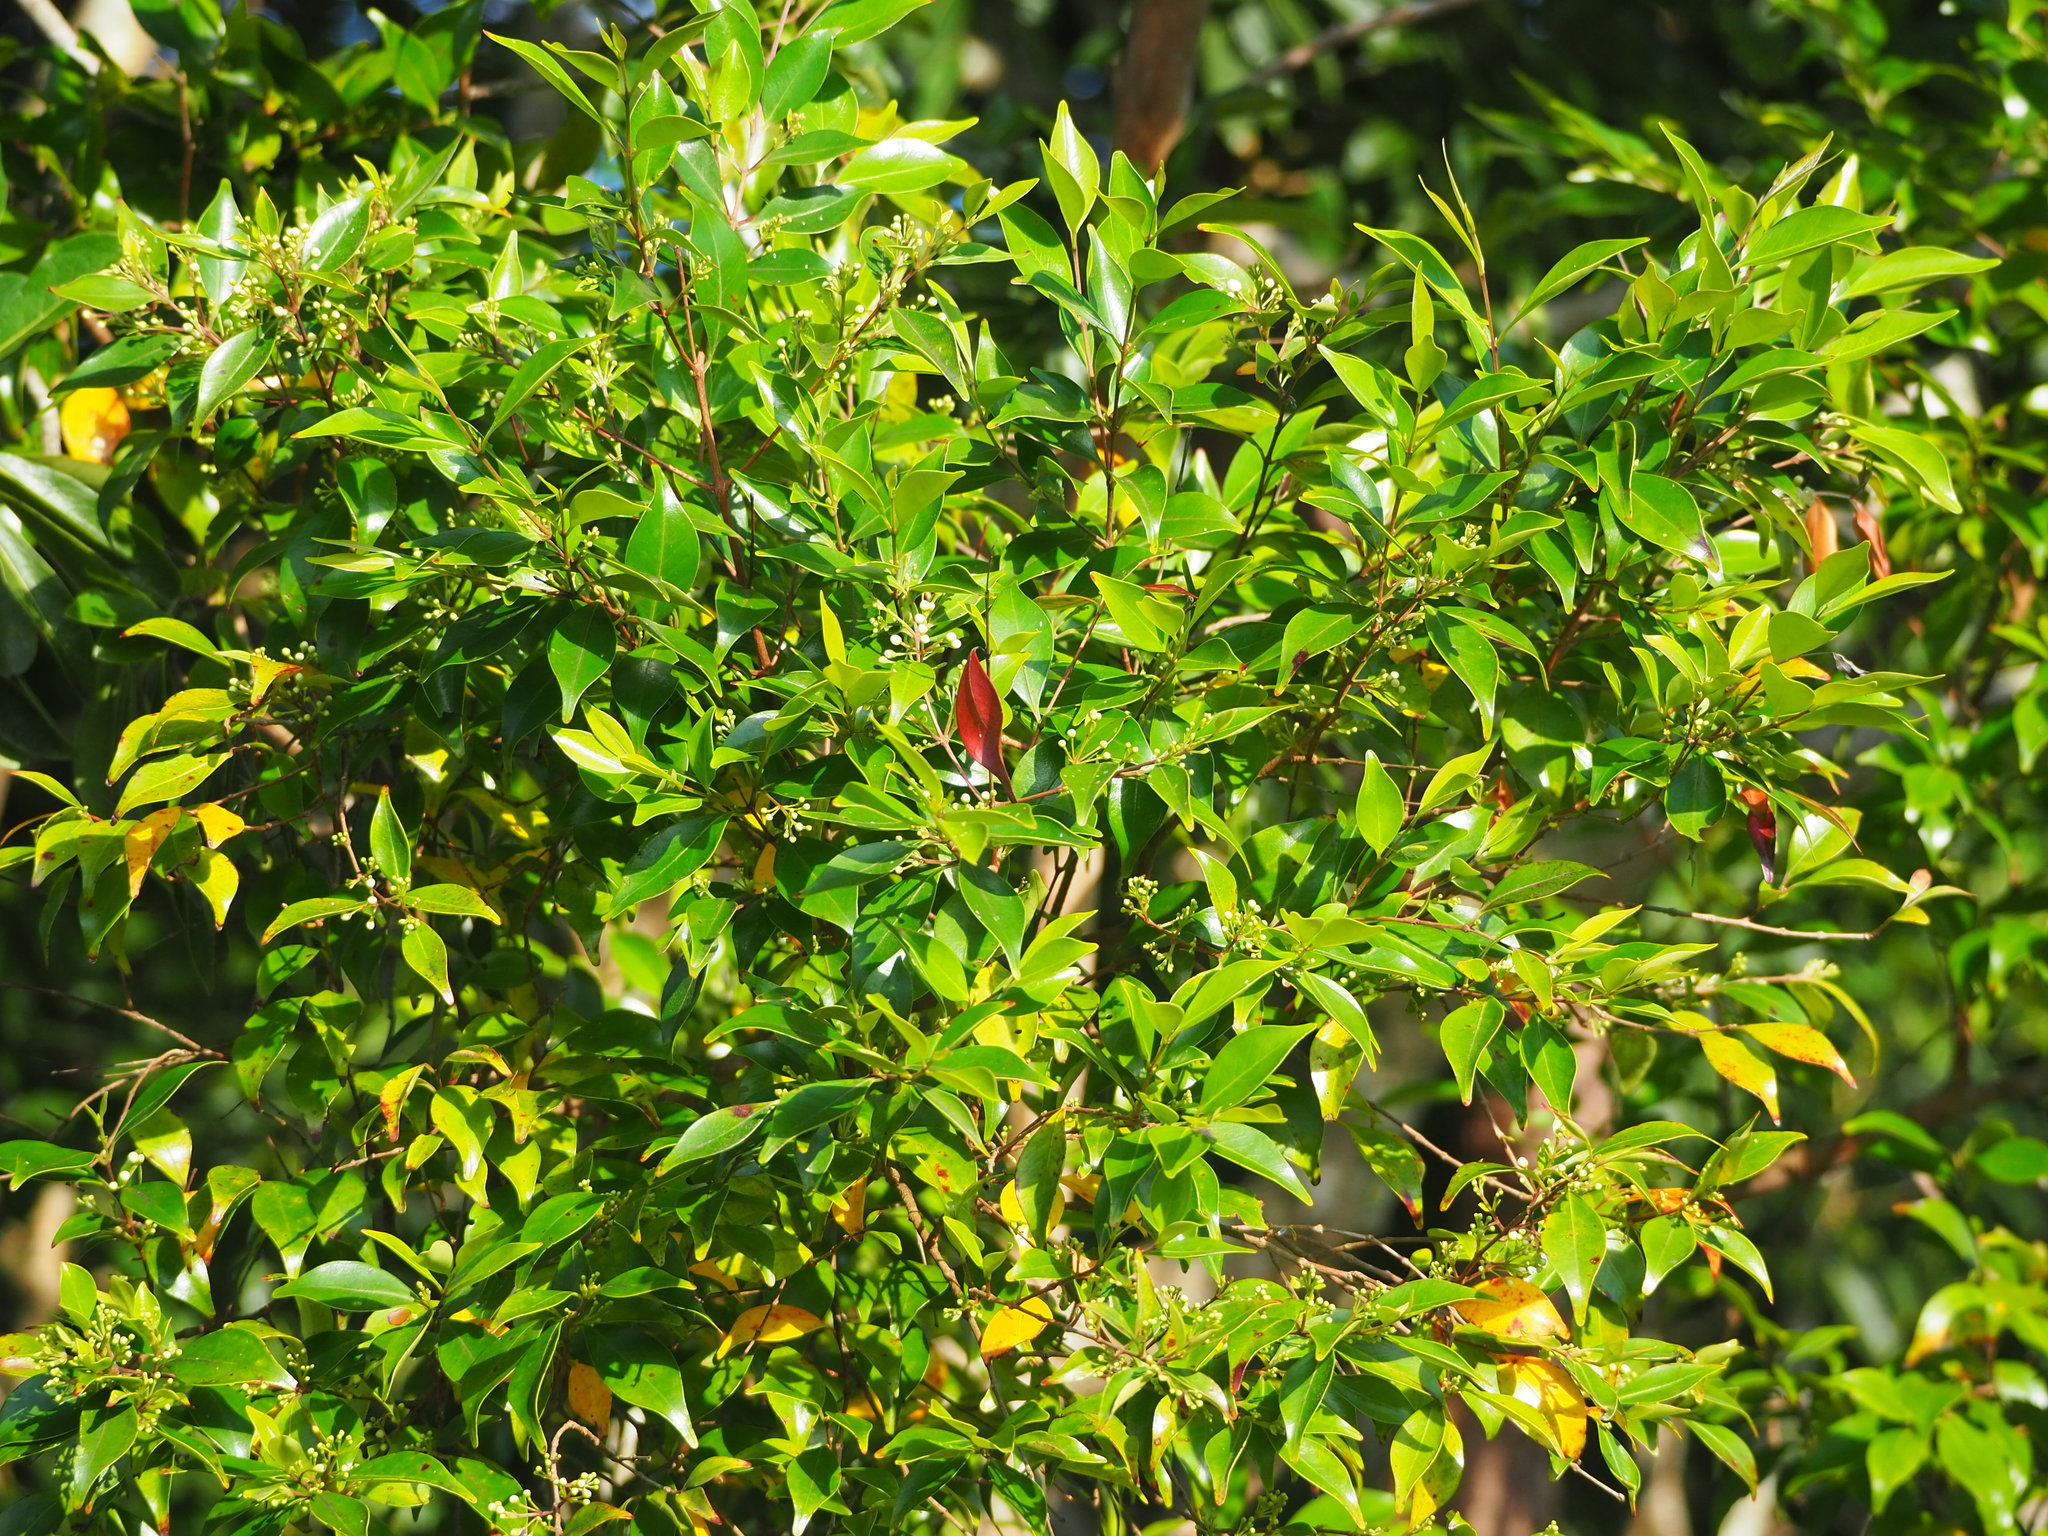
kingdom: Plantae
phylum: Tracheophyta
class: Magnoliopsida
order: Myrtales
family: Myrtaceae
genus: Decaspermum
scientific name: Decaspermum gracilentum
